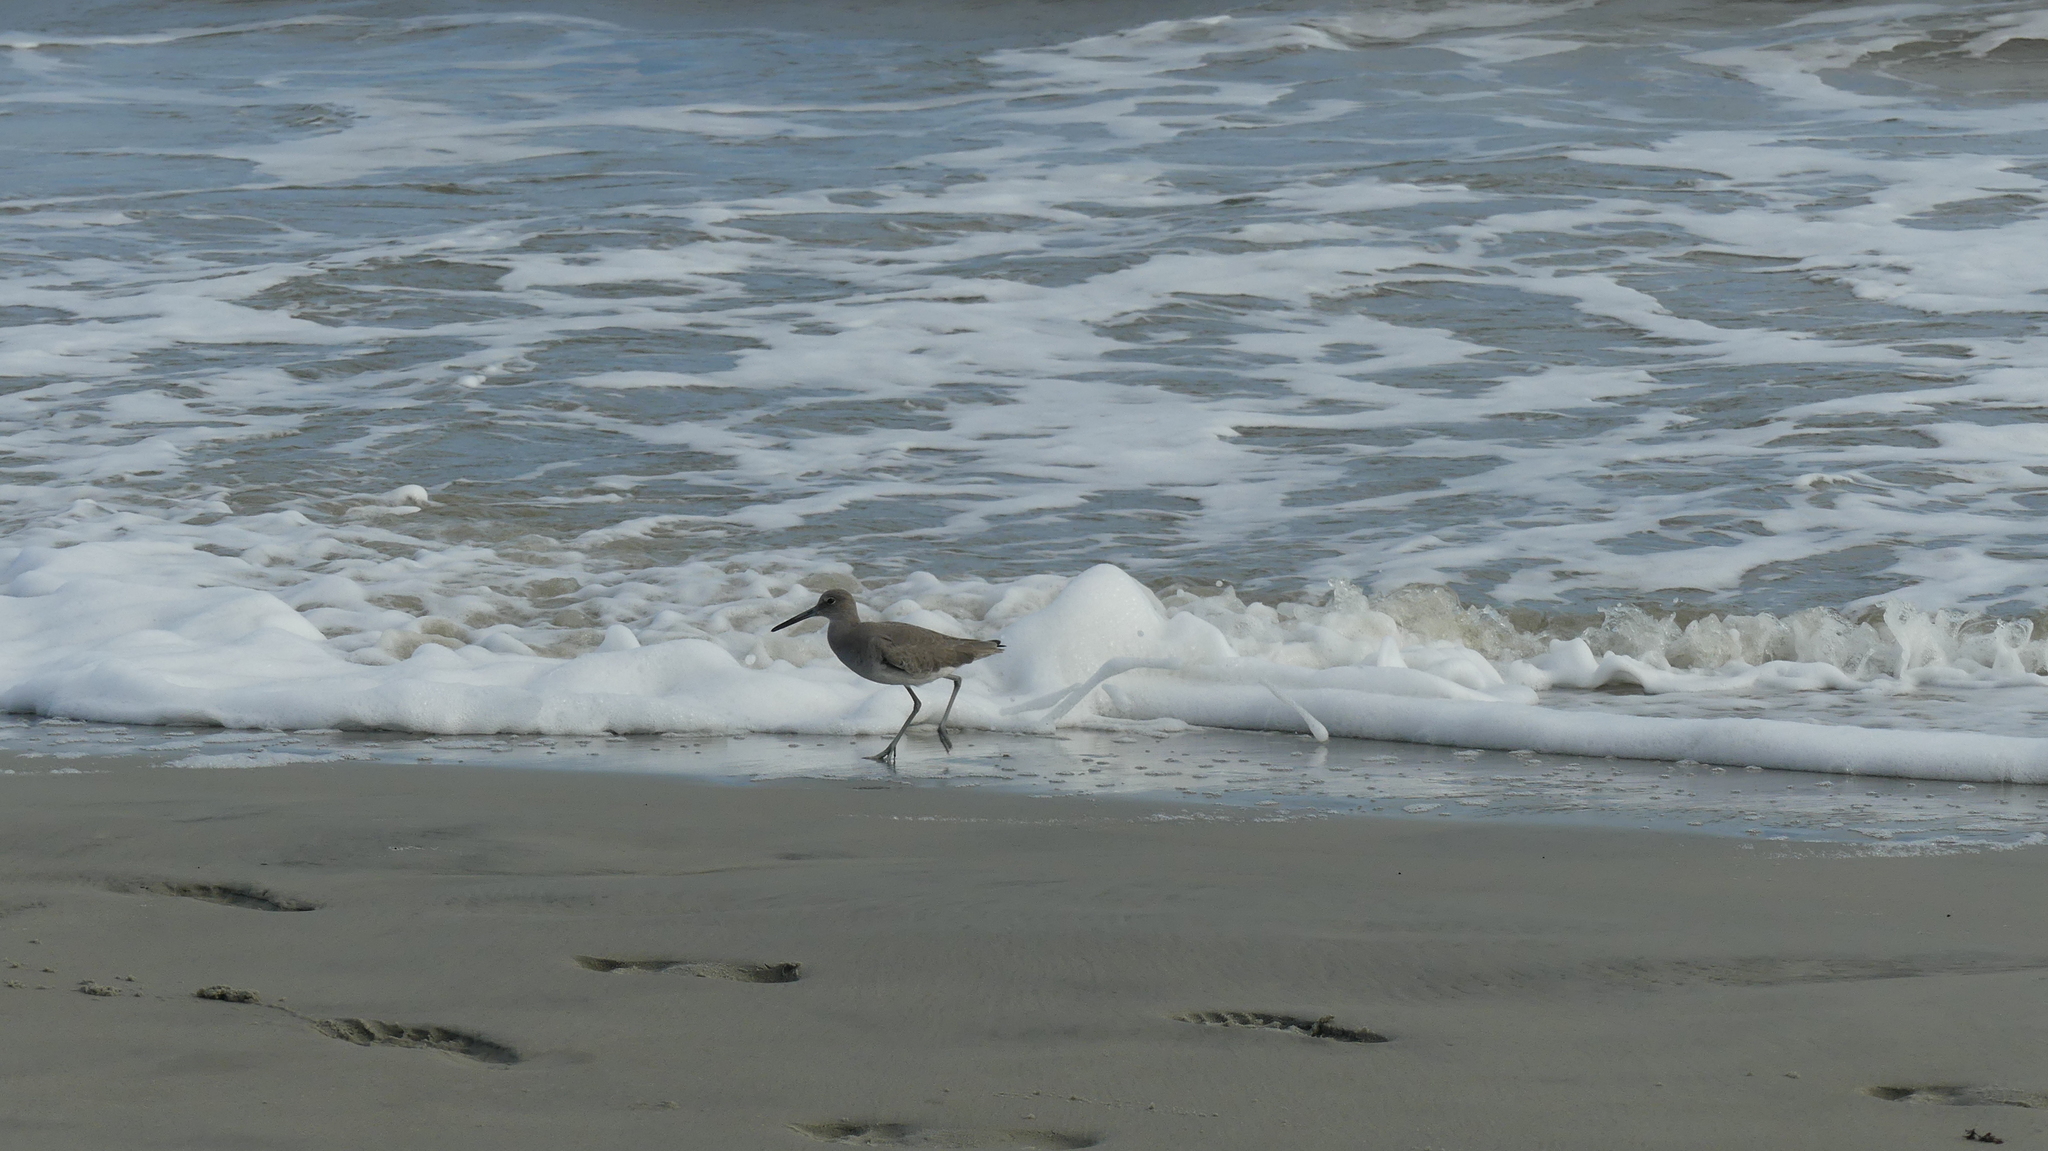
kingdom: Animalia
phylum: Chordata
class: Aves
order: Charadriiformes
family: Scolopacidae
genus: Tringa
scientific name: Tringa semipalmata
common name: Willet
